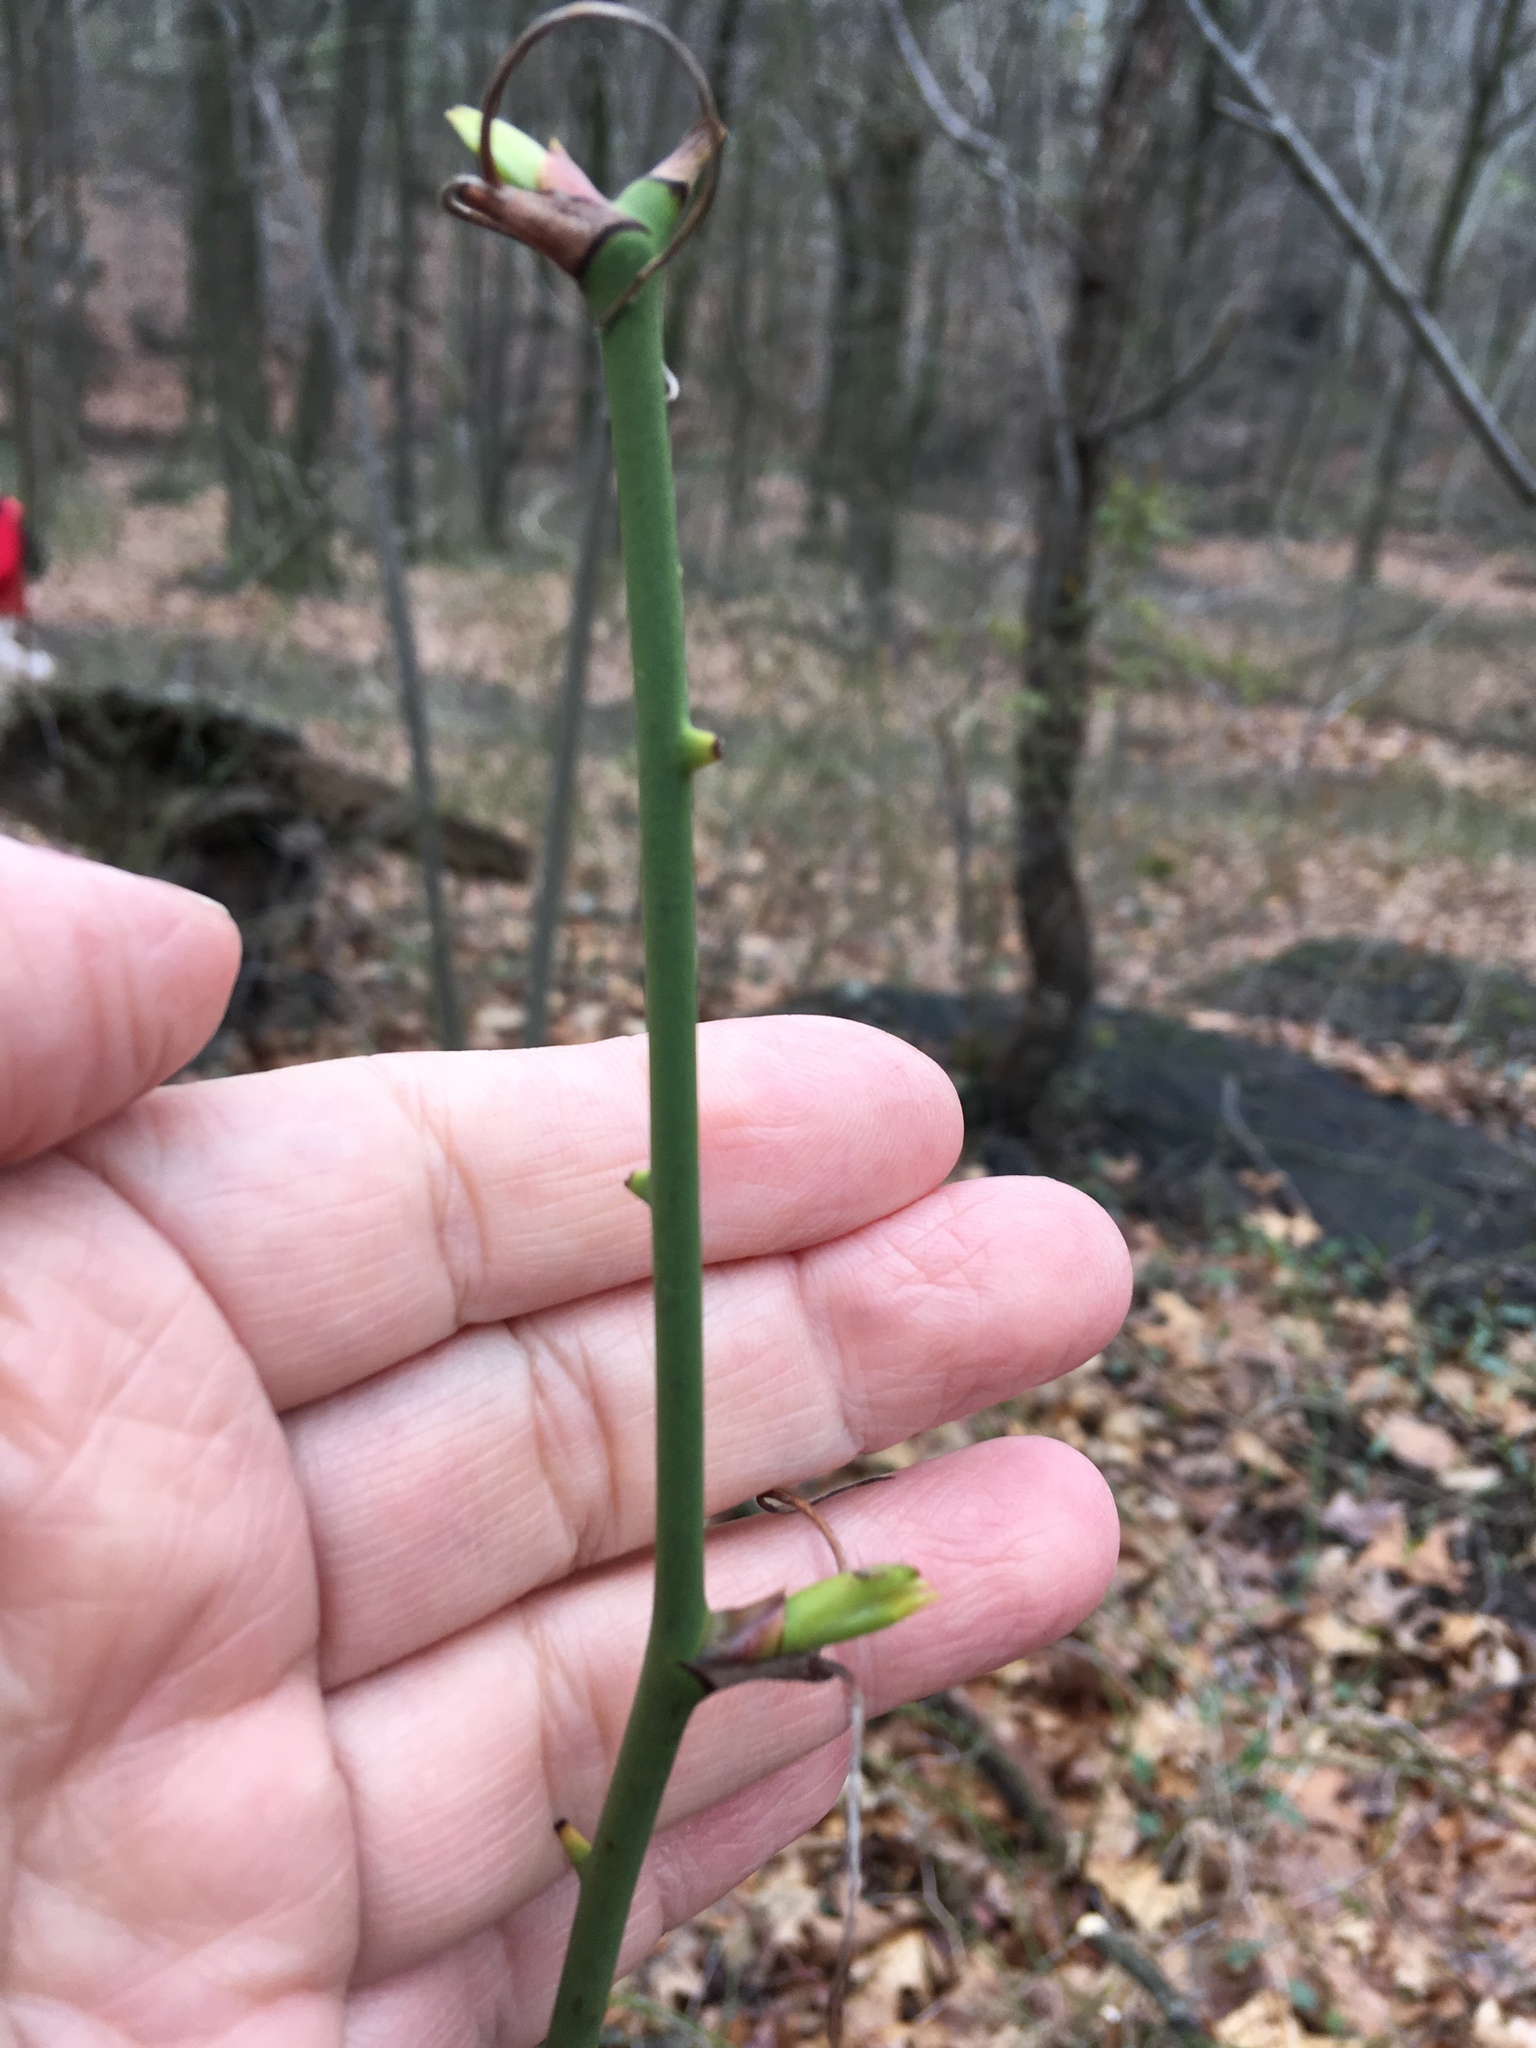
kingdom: Plantae
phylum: Tracheophyta
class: Liliopsida
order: Liliales
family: Smilacaceae
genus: Smilax
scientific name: Smilax rotundifolia
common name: Bullbriar
